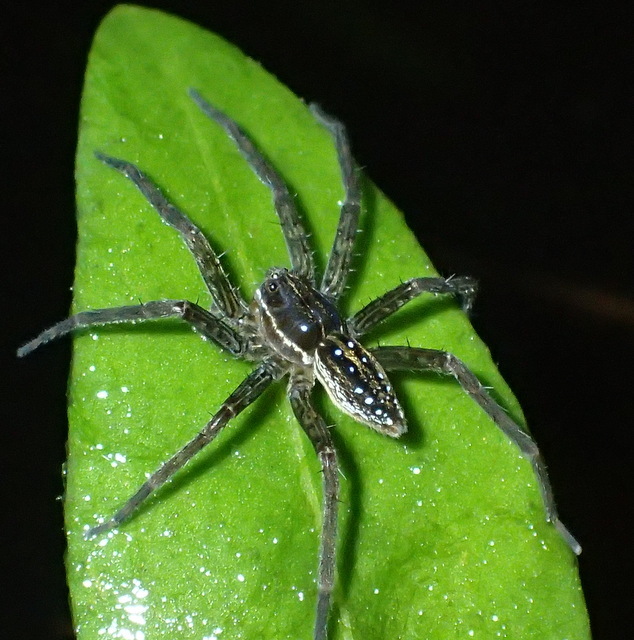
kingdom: Animalia
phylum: Arthropoda
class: Arachnida
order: Araneae
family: Pisauridae
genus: Dolomedes
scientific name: Dolomedes triton
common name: Six-spotted fishing spider
